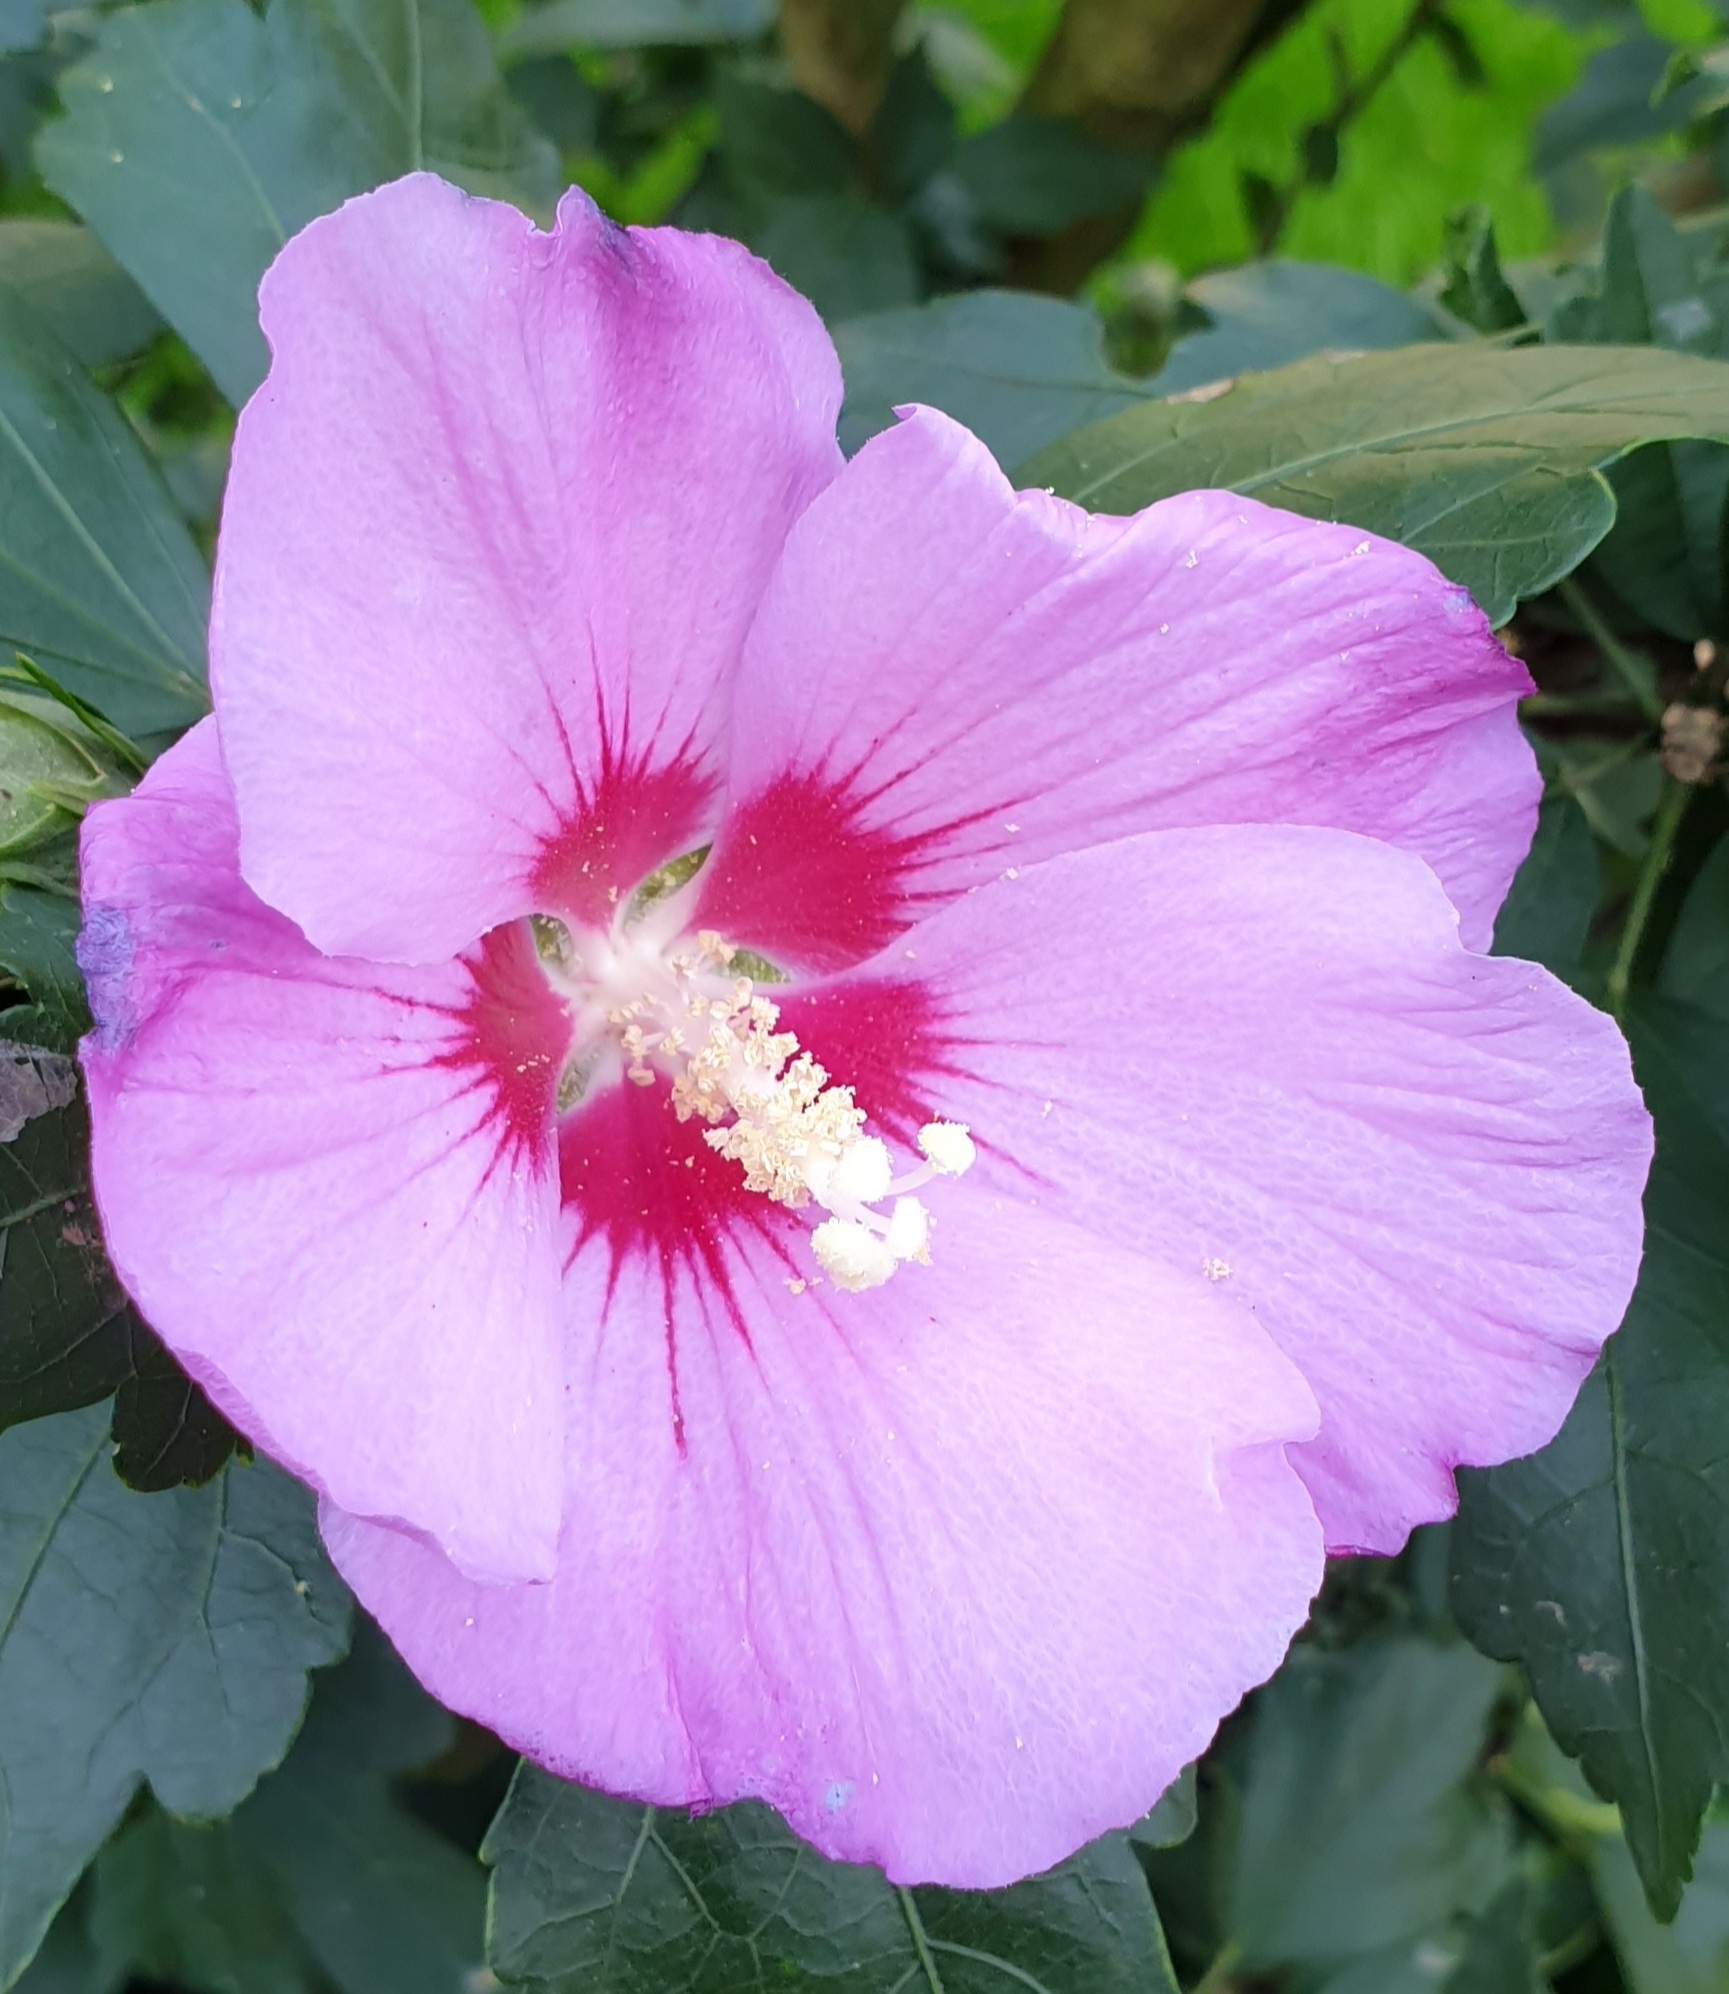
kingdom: Plantae
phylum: Tracheophyta
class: Magnoliopsida
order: Malvales
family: Malvaceae
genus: Hibiscus
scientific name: Hibiscus syriacus
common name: Syrian ketmia
